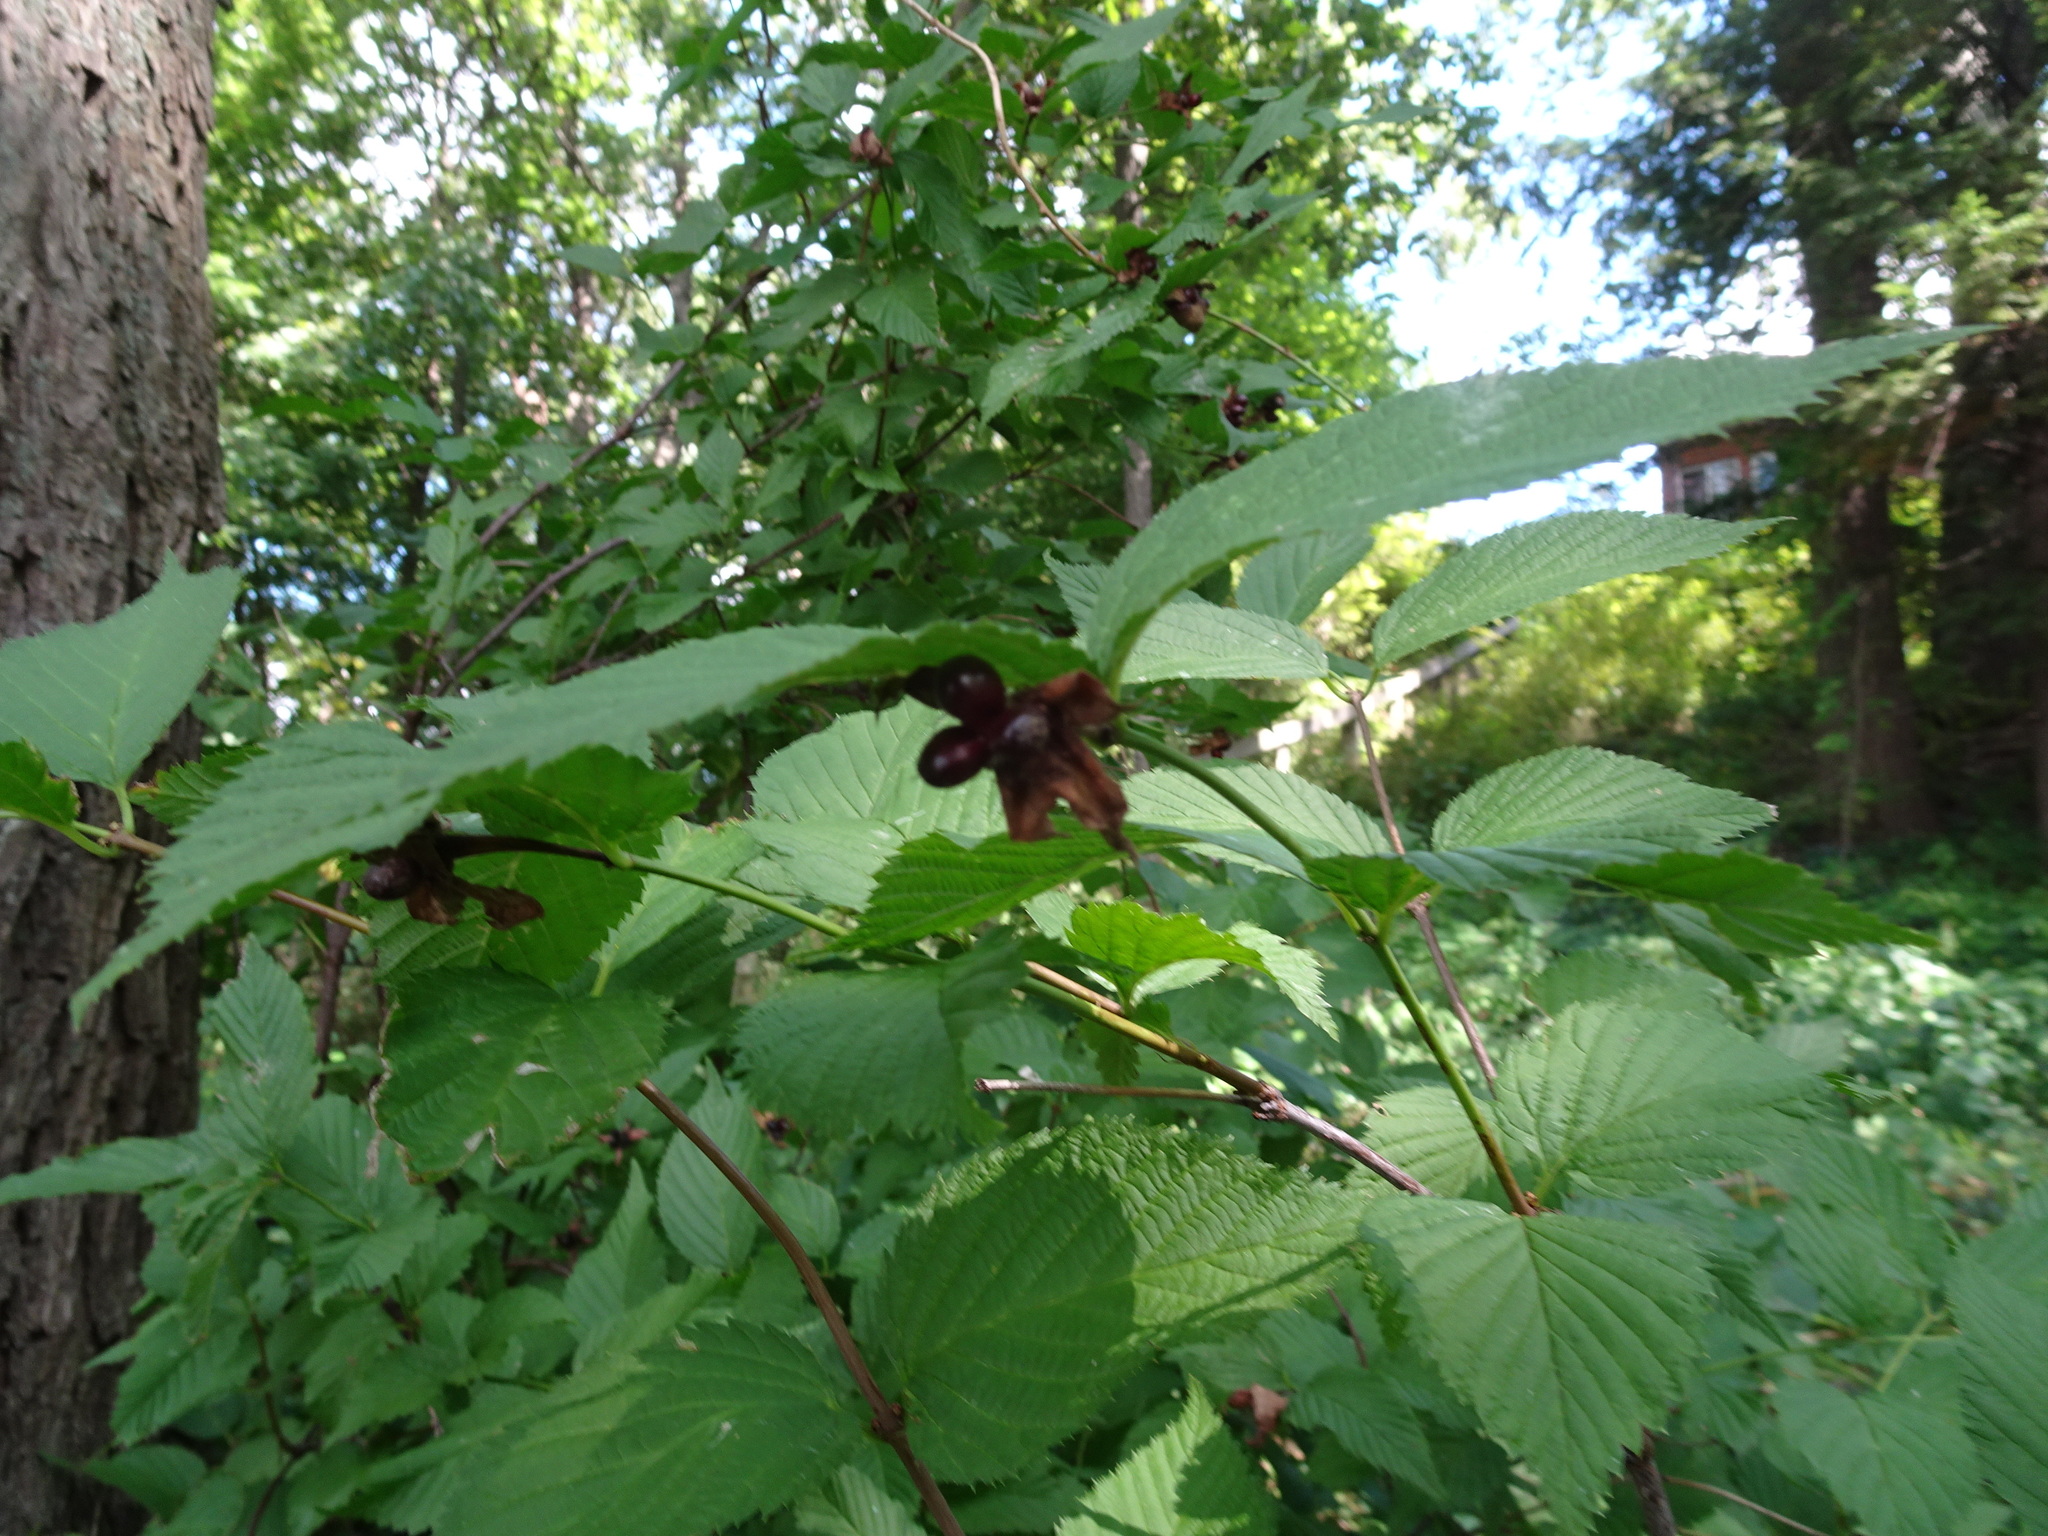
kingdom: Plantae
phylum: Tracheophyta
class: Magnoliopsida
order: Rosales
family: Rosaceae
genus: Rhodotypos
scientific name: Rhodotypos scandens
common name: Jetbead
